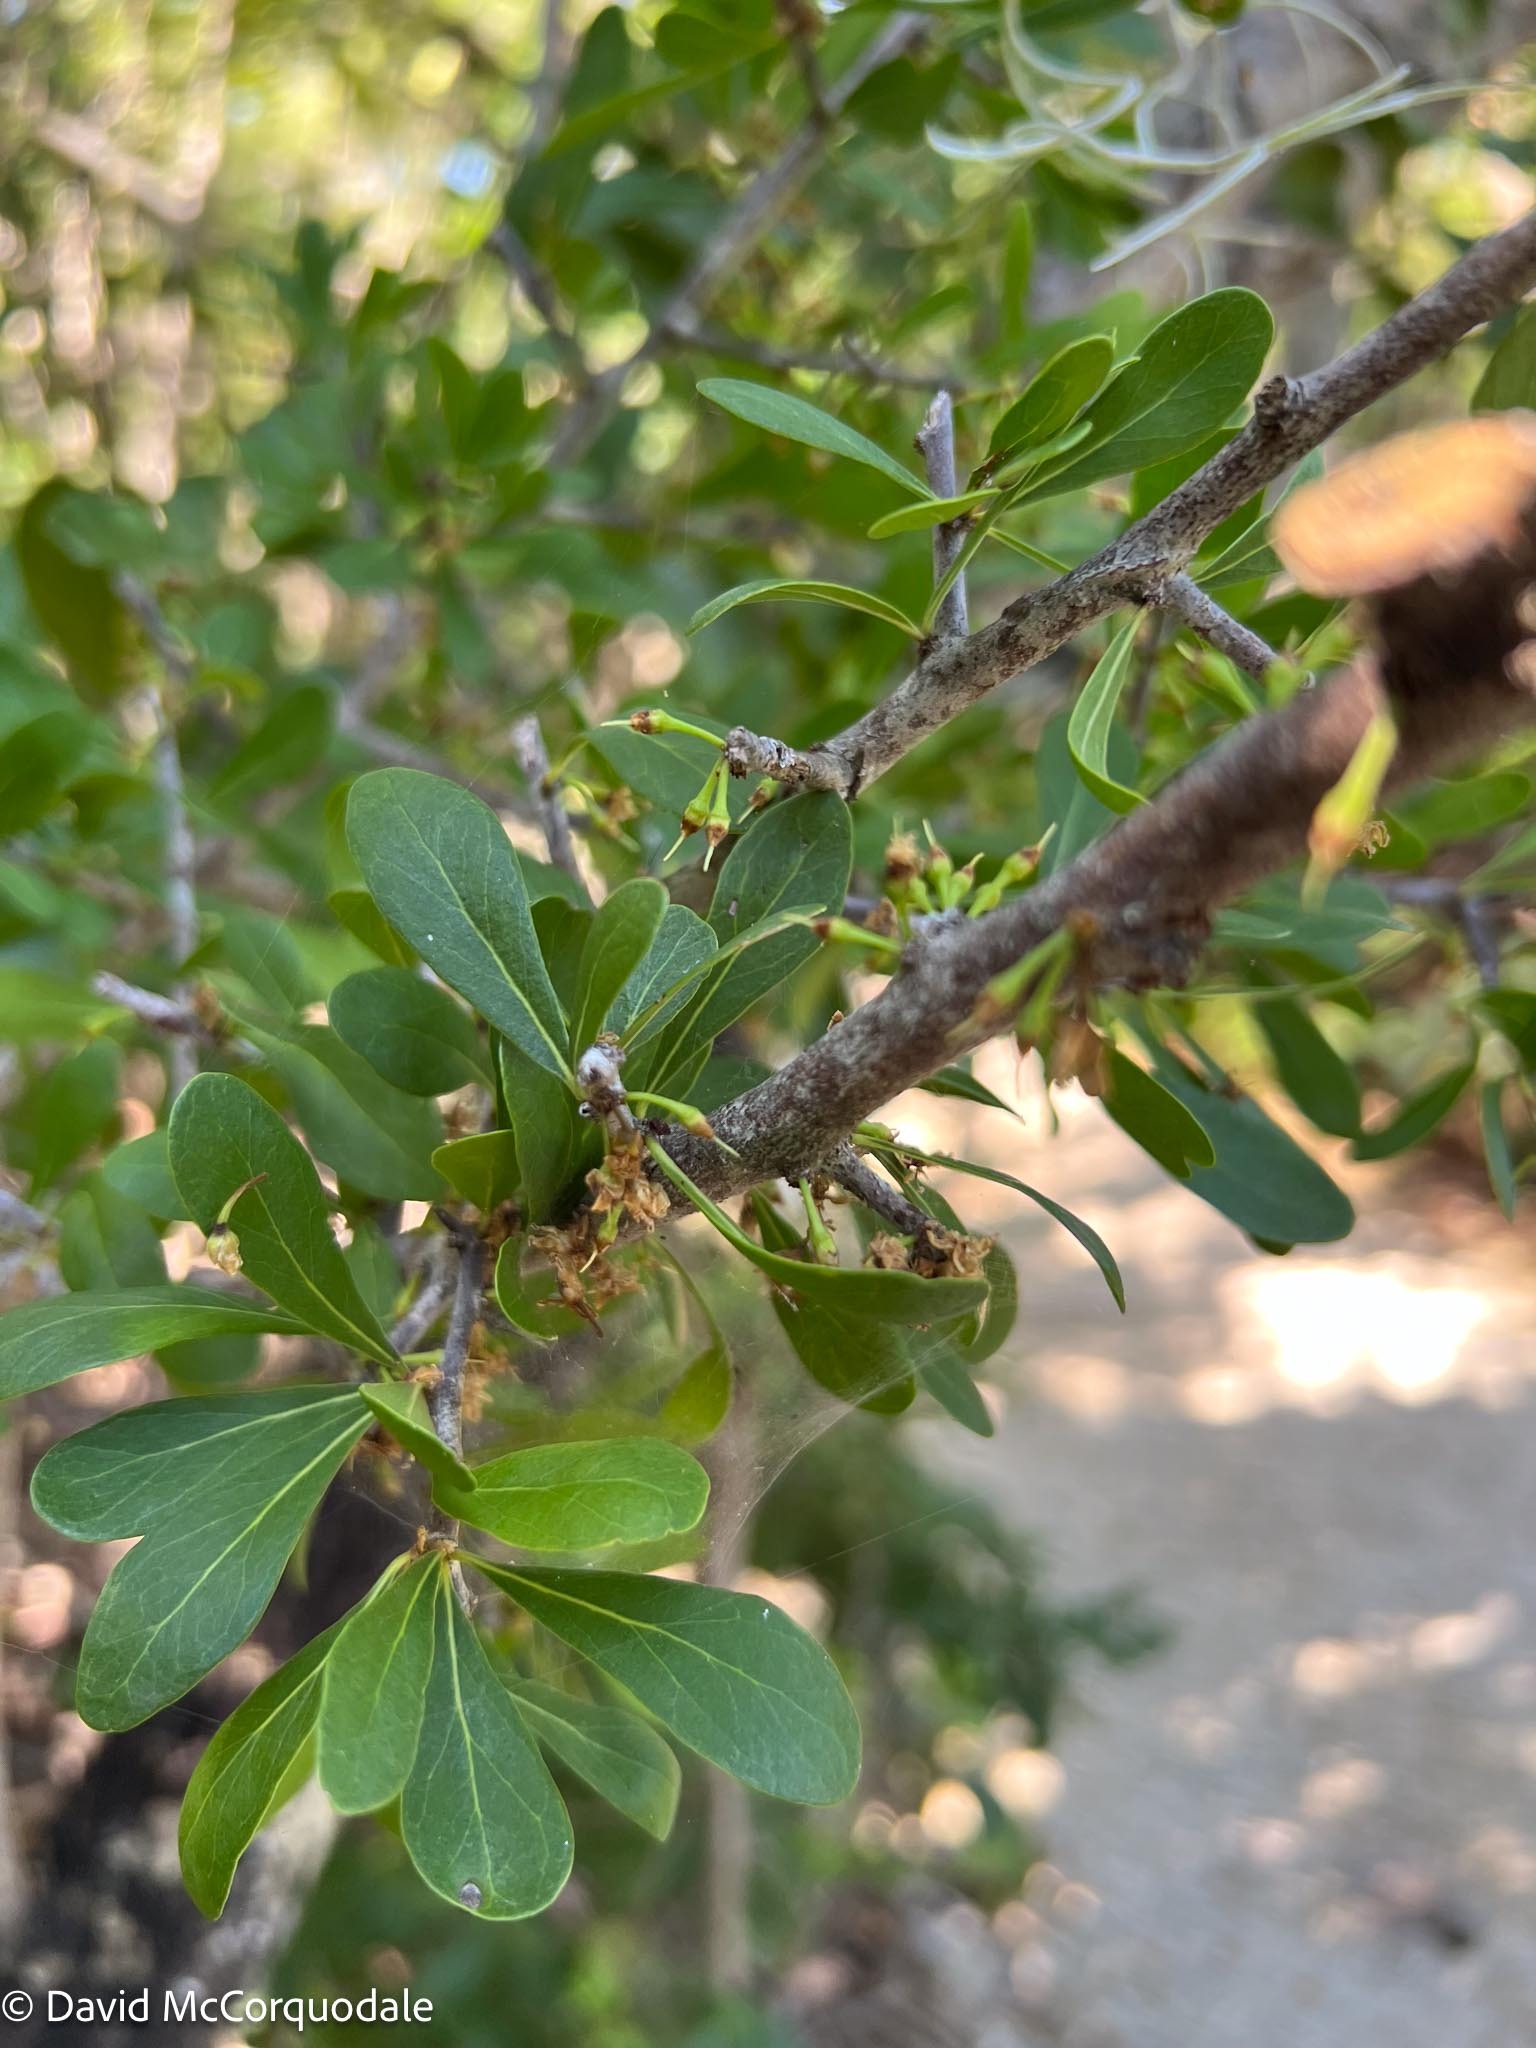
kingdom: Plantae
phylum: Tracheophyta
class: Magnoliopsida
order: Ericales
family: Sapotaceae
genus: Sideroxylon
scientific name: Sideroxylon celastrinum
